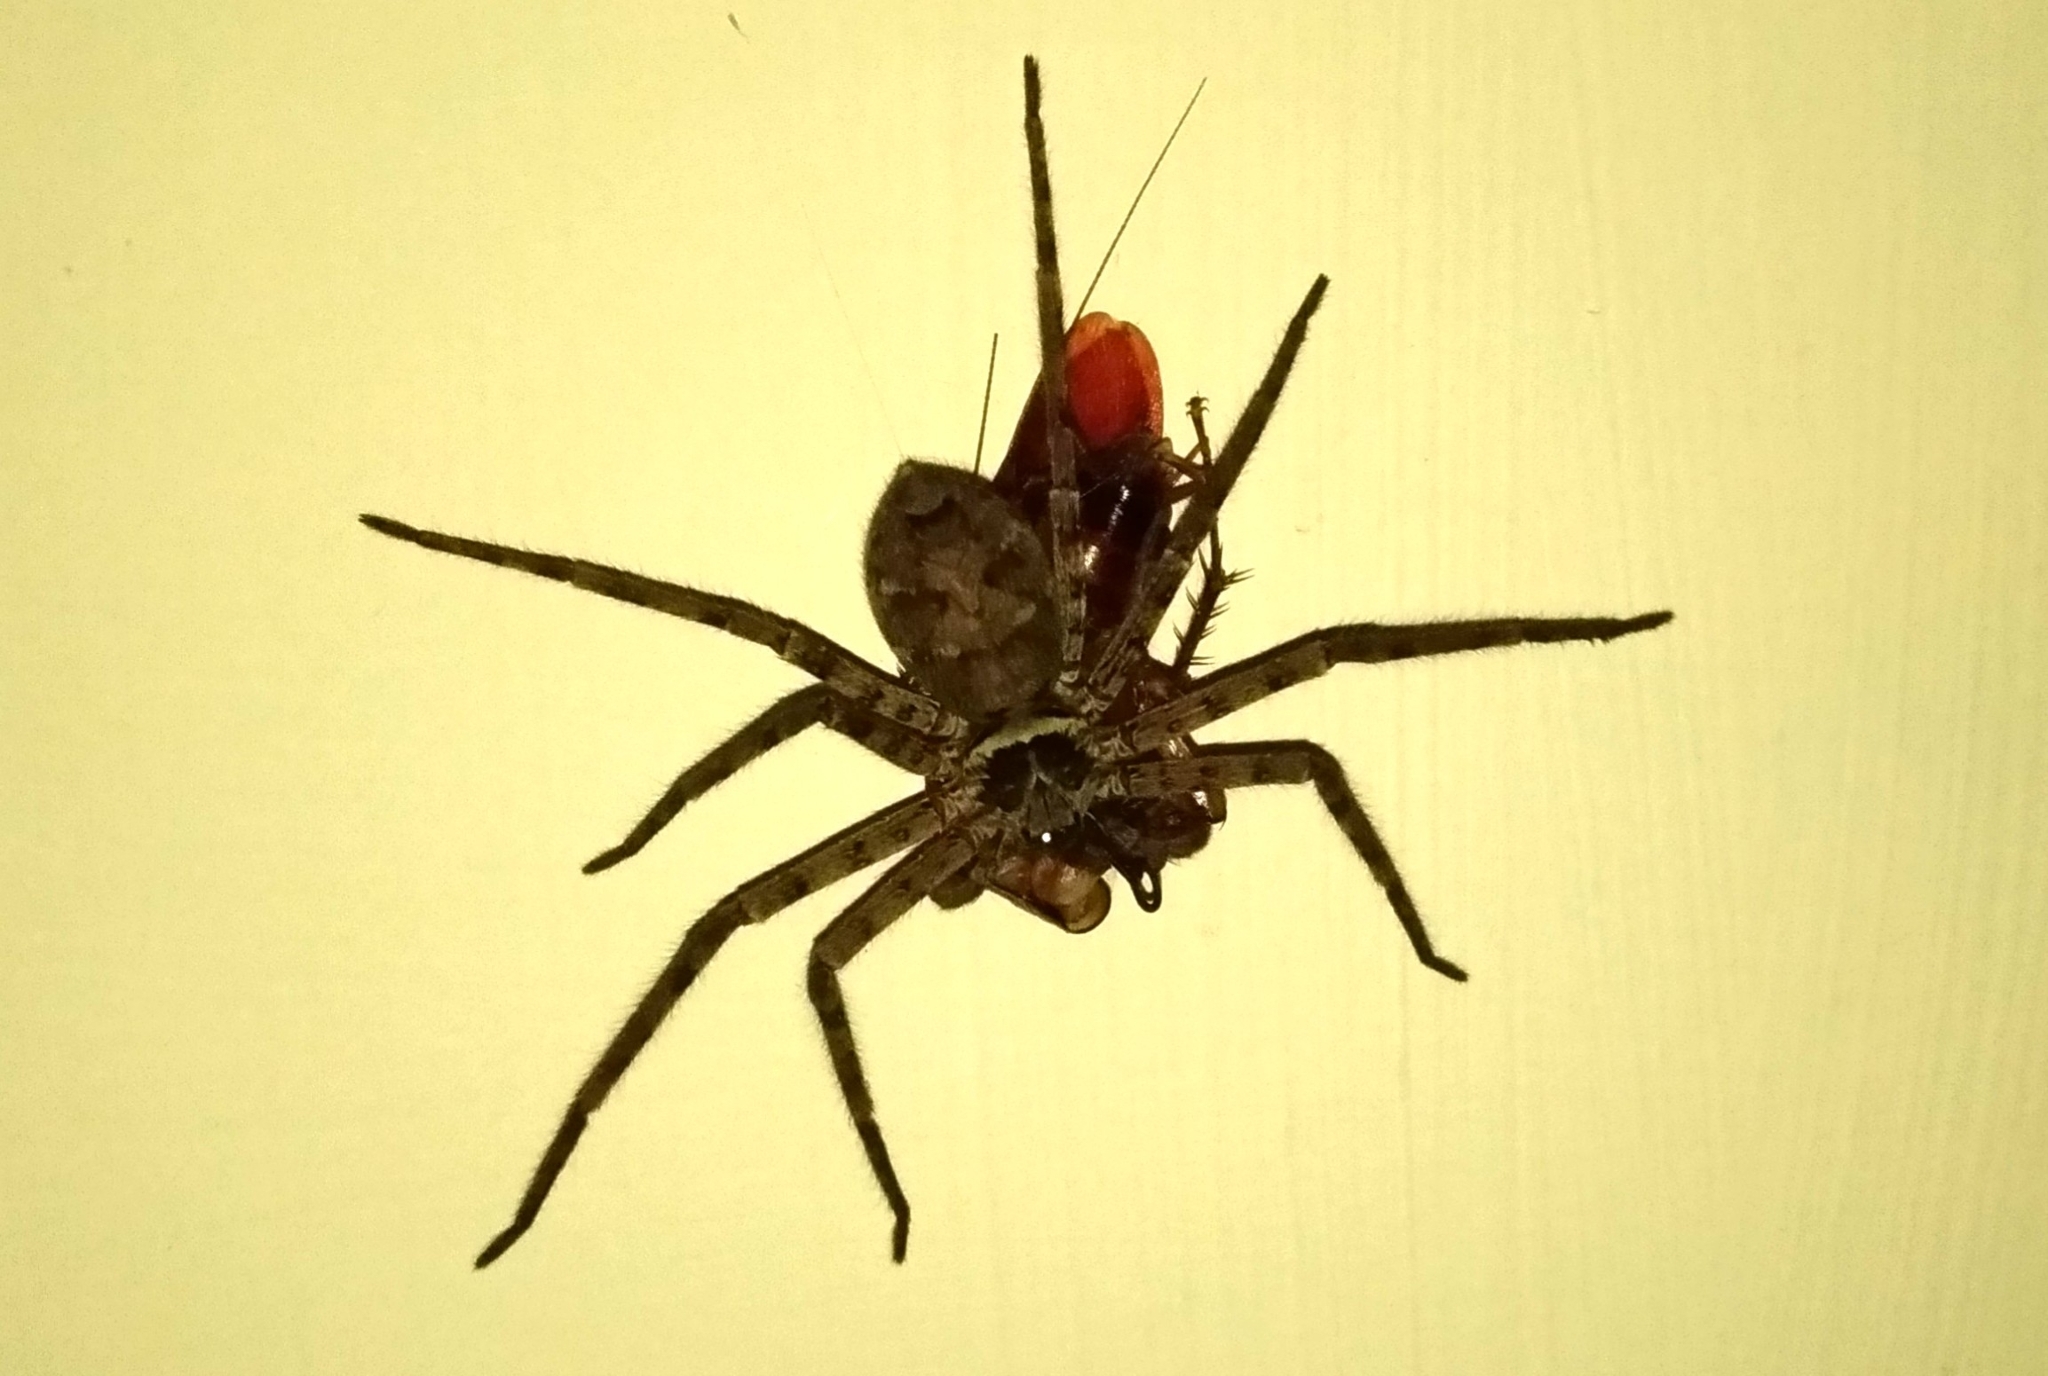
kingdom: Animalia
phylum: Arthropoda
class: Arachnida
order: Araneae
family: Sparassidae
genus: Heteropoda
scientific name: Heteropoda venatoria
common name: Huntsman spider
